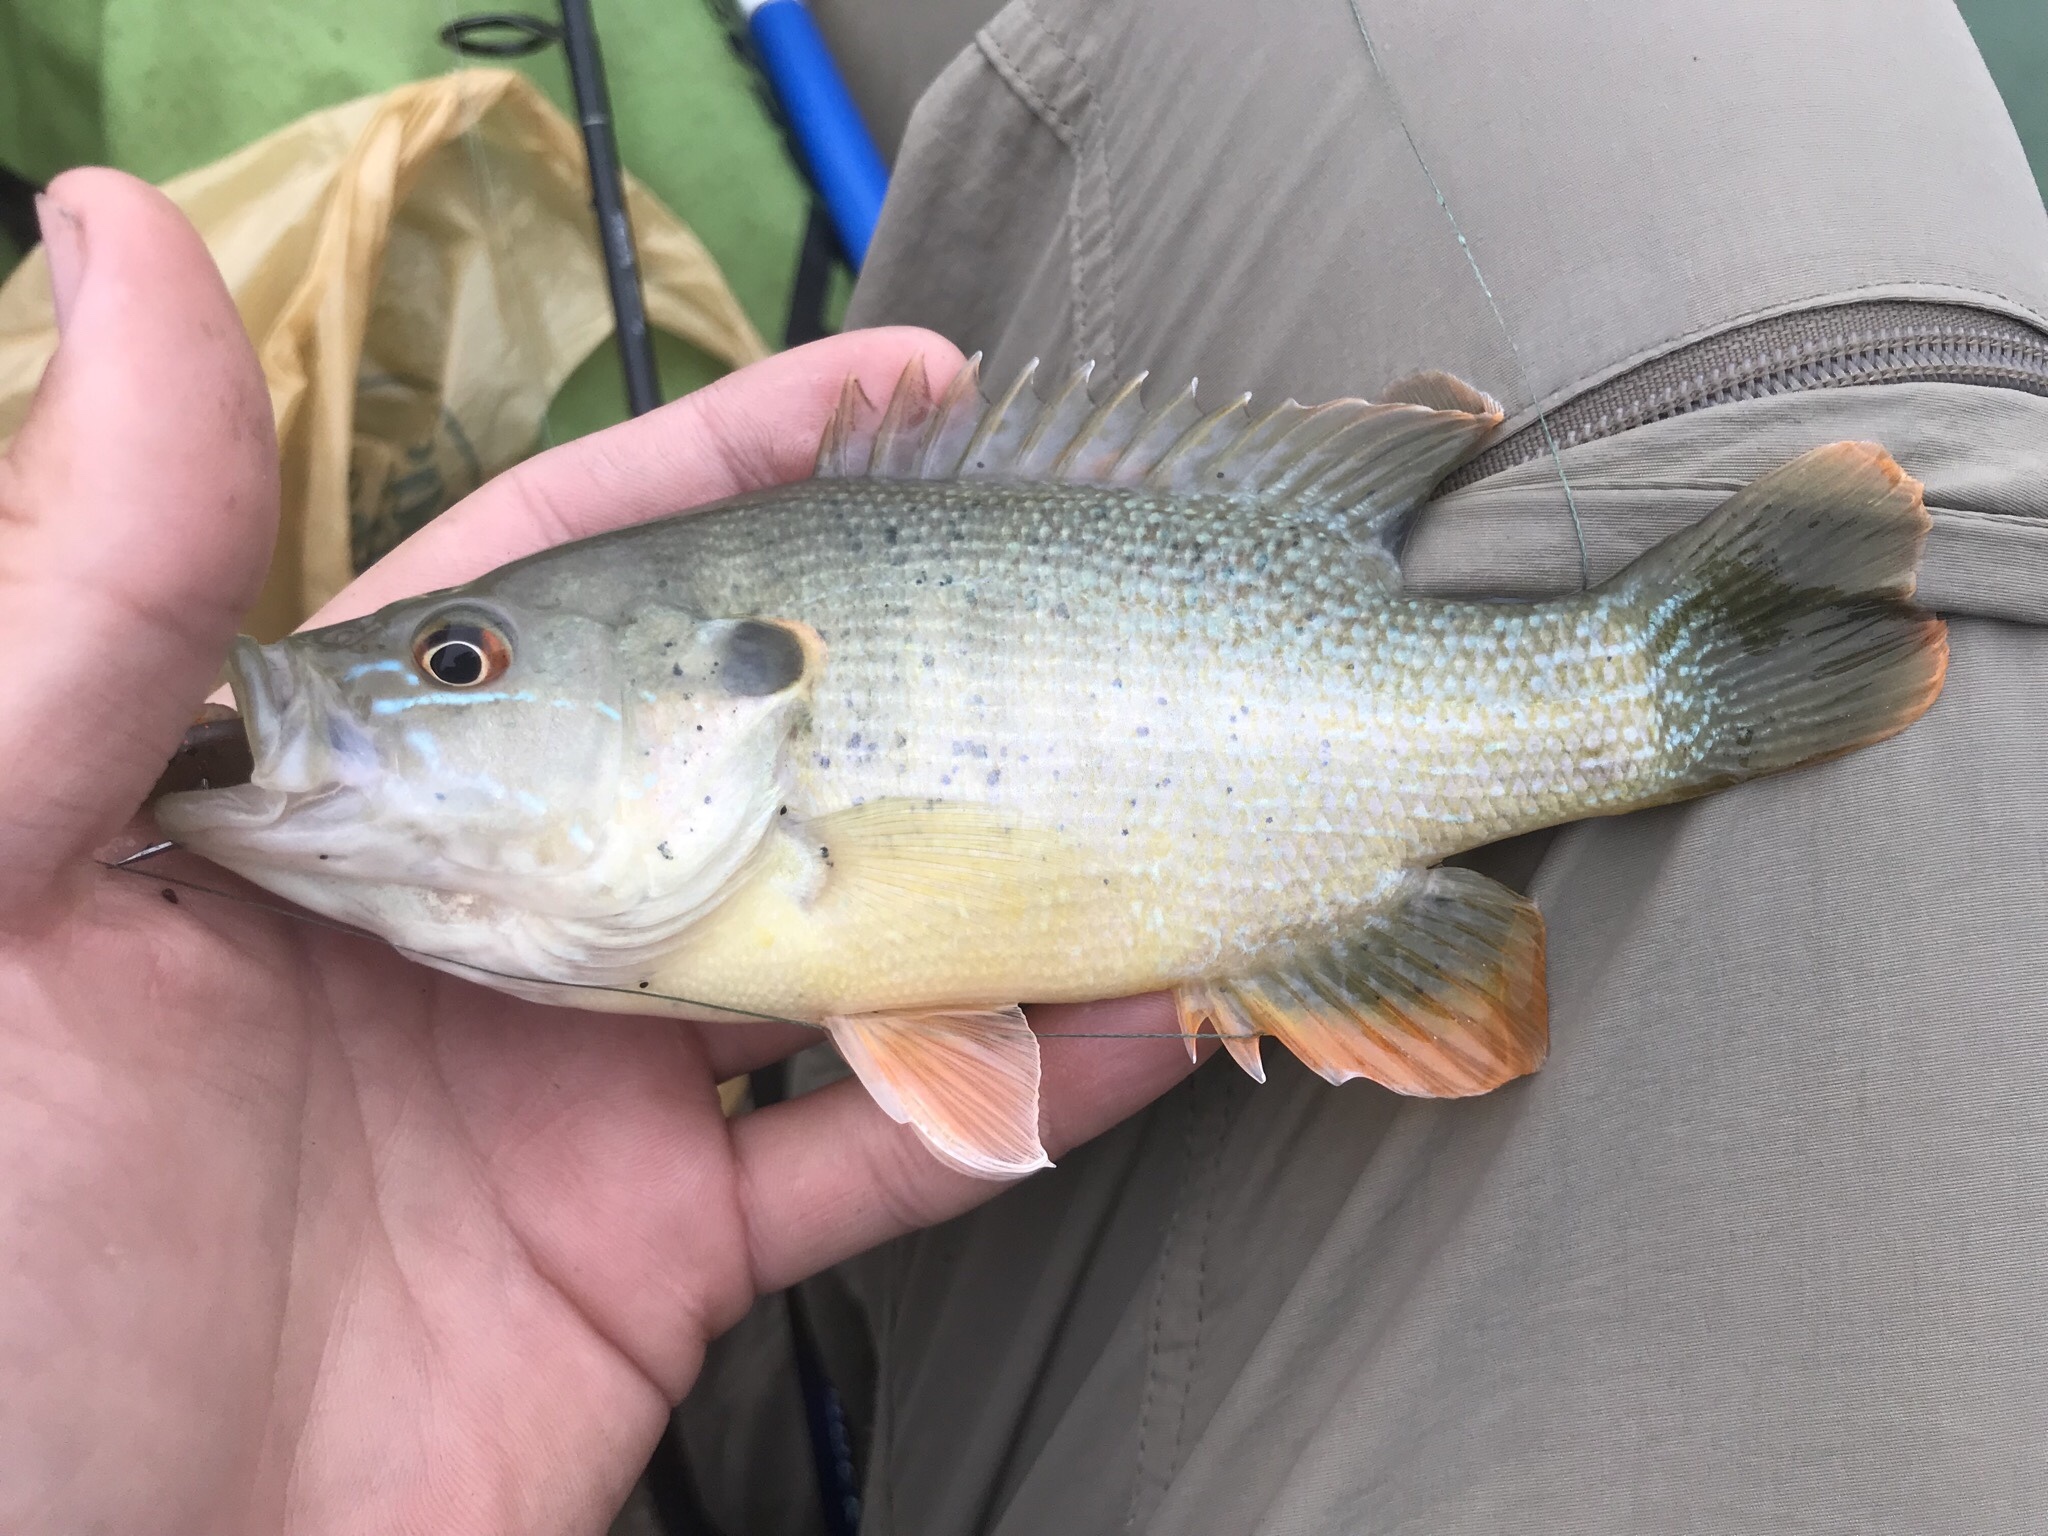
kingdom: Animalia
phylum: Chordata
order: Perciformes
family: Centrarchidae
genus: Lepomis
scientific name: Lepomis cyanellus
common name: Green sunfish
